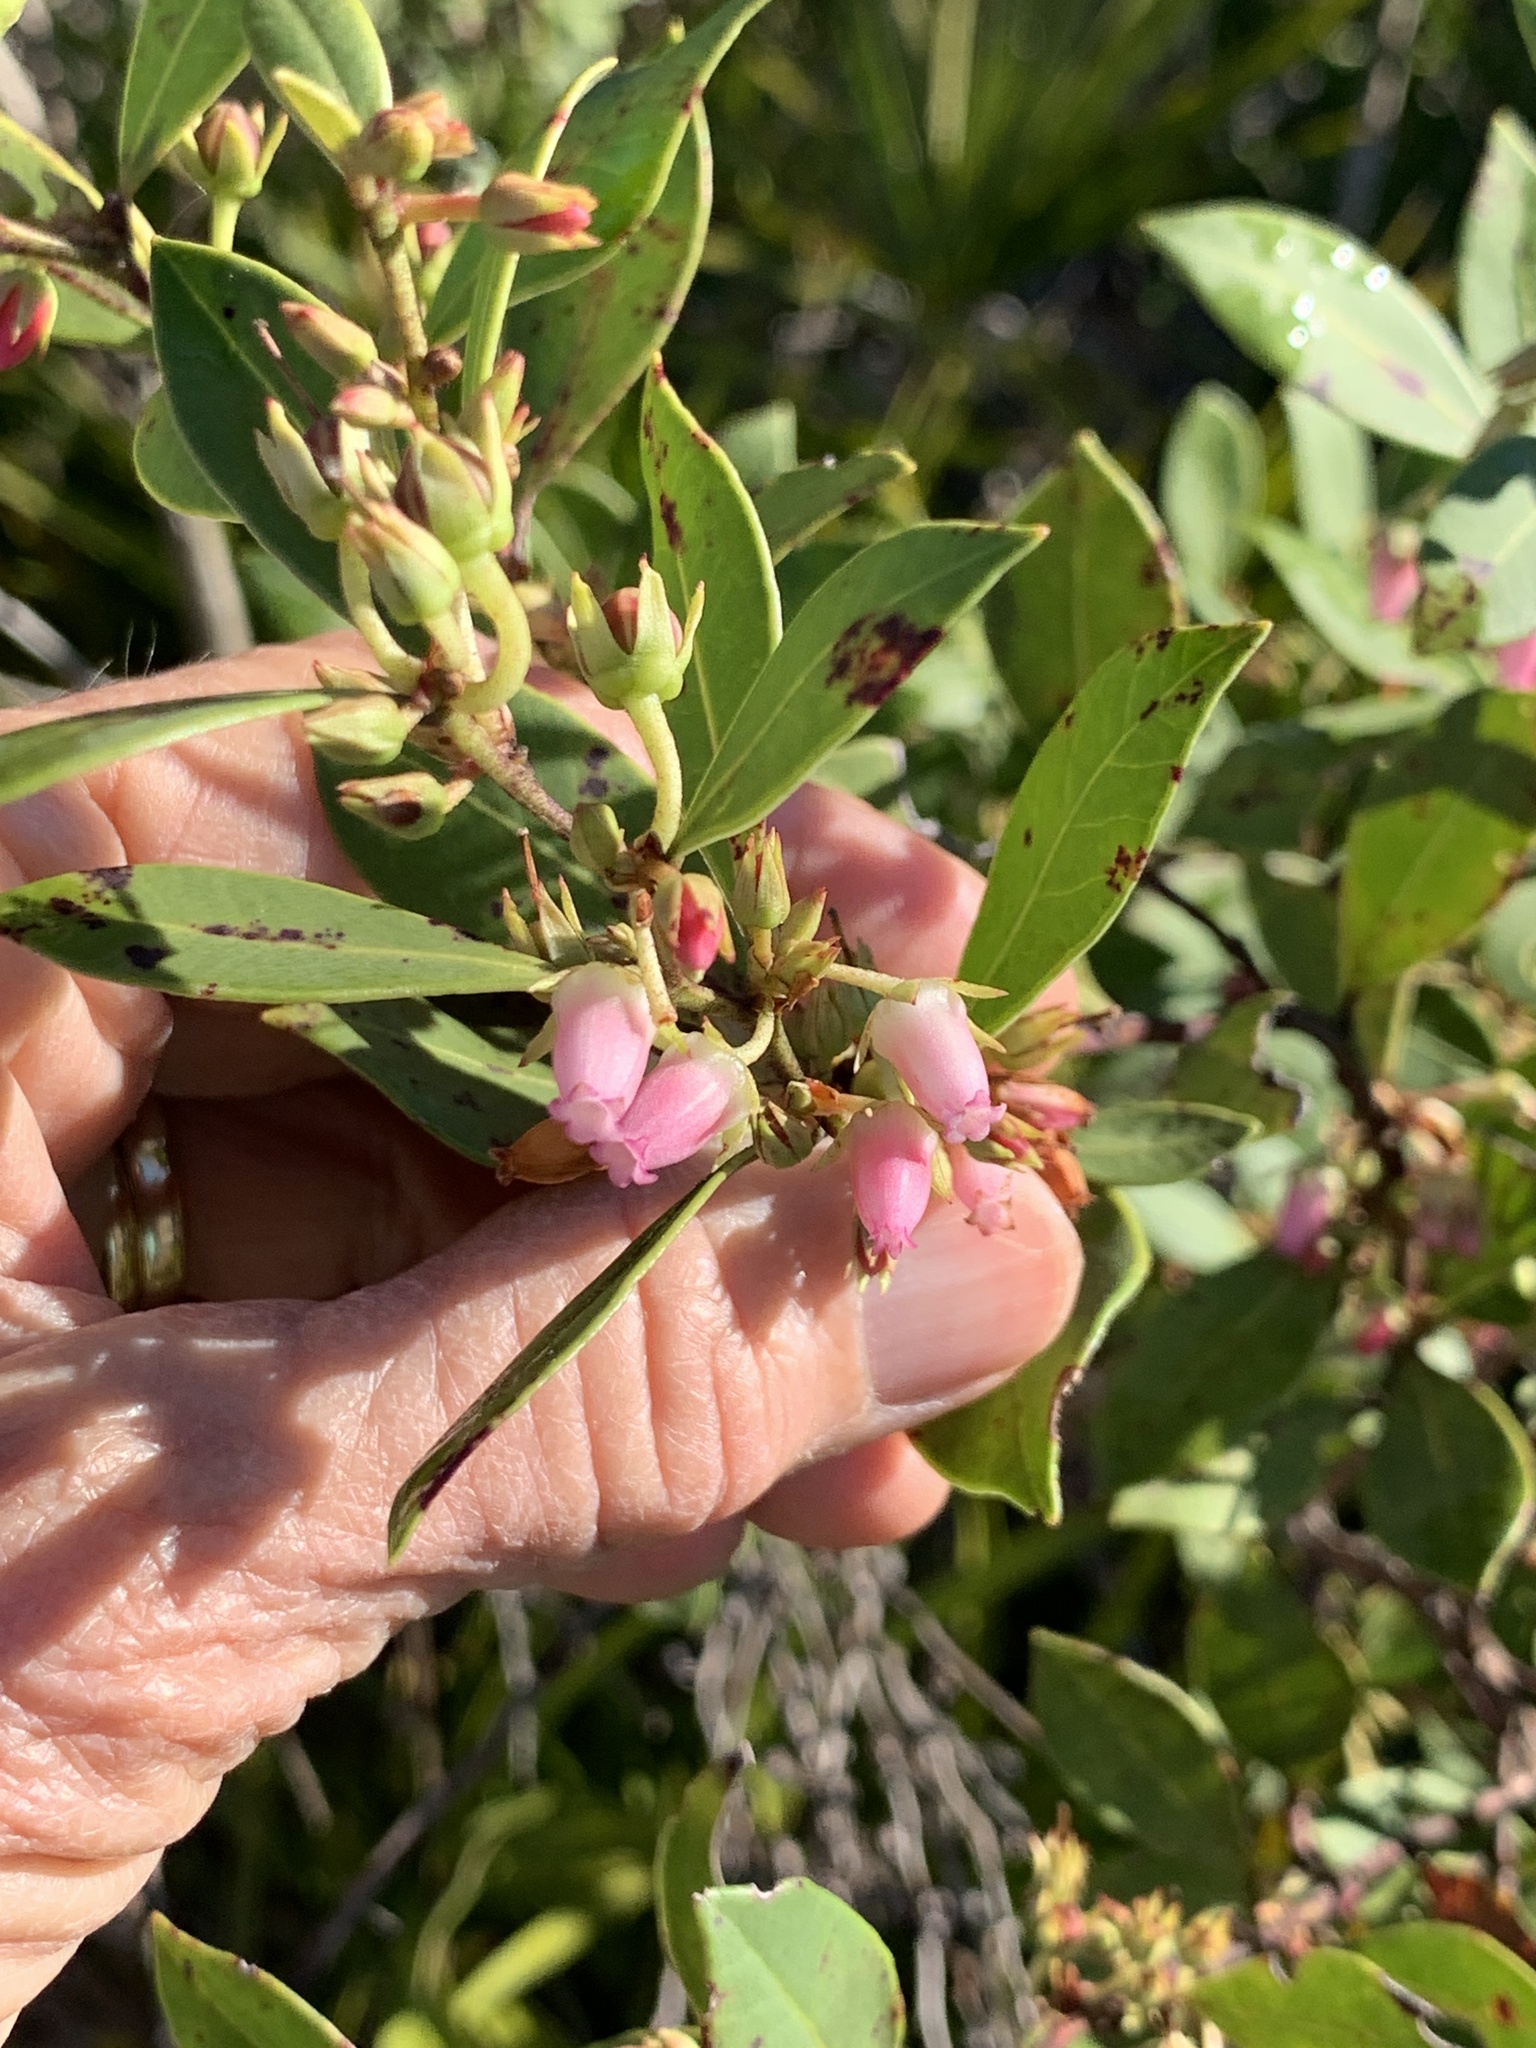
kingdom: Plantae
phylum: Tracheophyta
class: Magnoliopsida
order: Ericales
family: Ericaceae
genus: Lyonia
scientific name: Lyonia lucida
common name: Fetterbush
